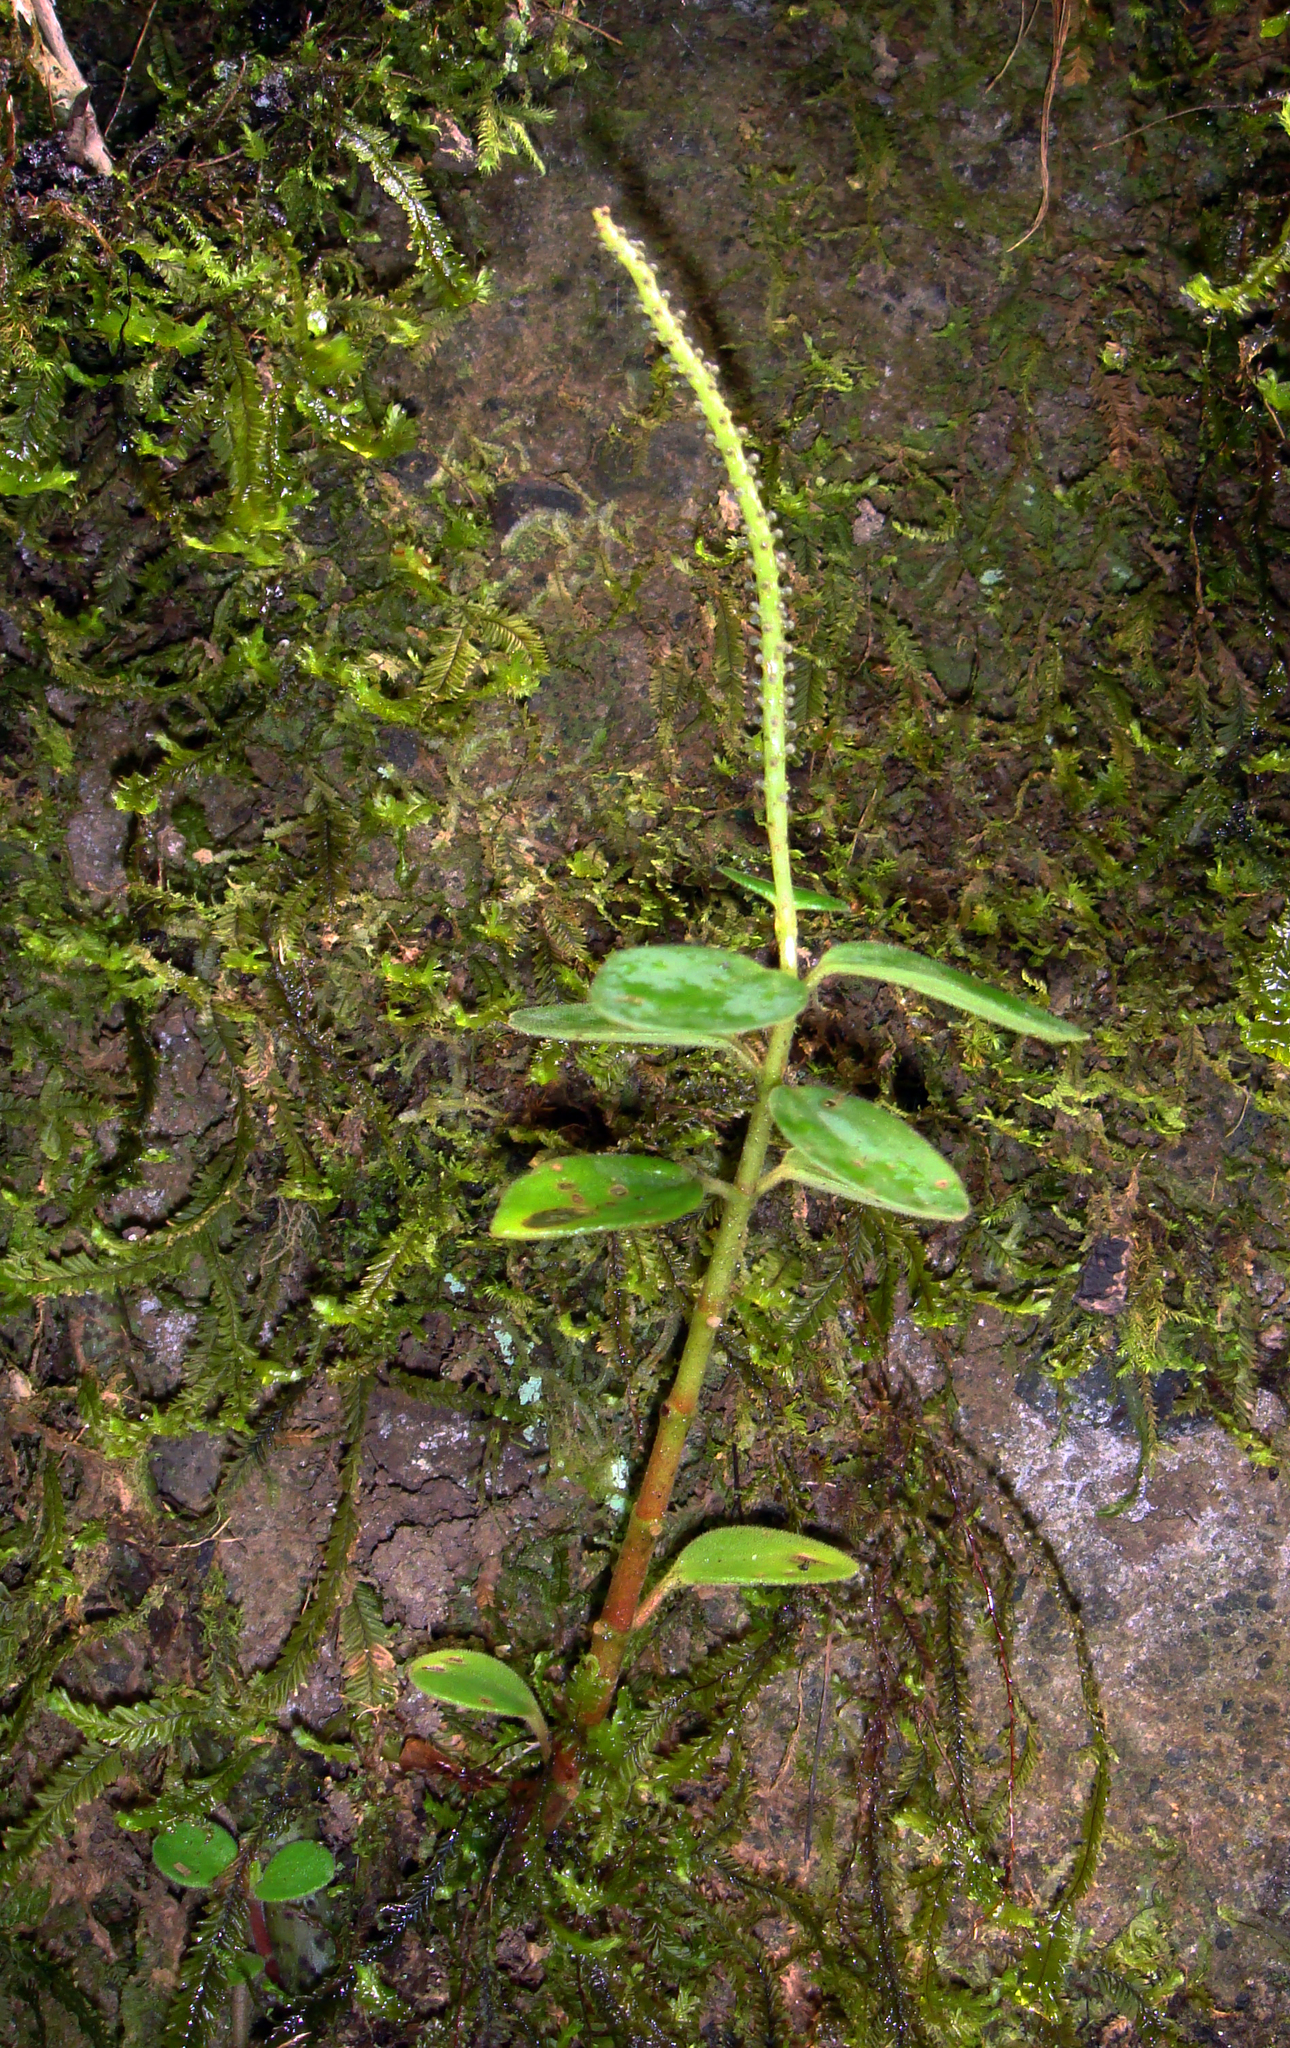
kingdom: Plantae
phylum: Tracheophyta
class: Magnoliopsida
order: Piperales
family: Piperaceae
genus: Peperomia
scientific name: Peperomia leptostachya
